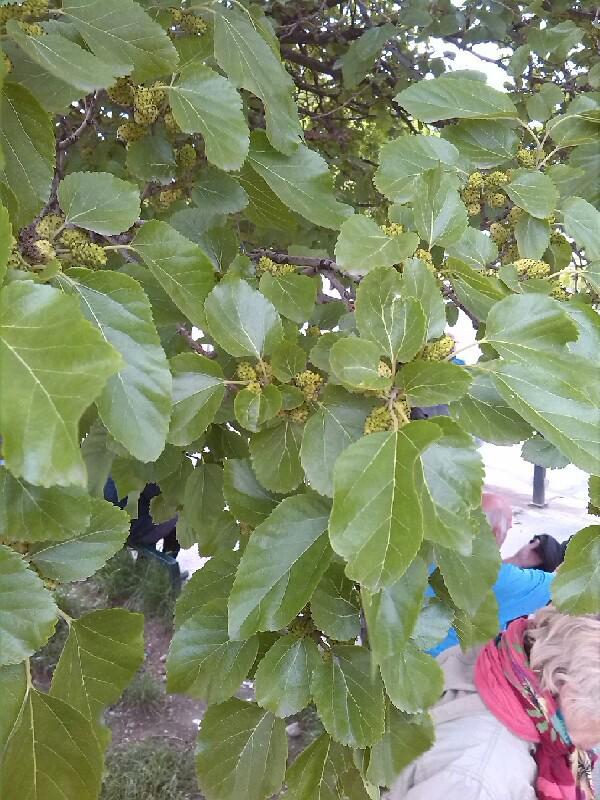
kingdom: Plantae
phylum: Tracheophyta
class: Magnoliopsida
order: Rosales
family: Moraceae
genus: Morus
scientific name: Morus alba
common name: White mulberry
